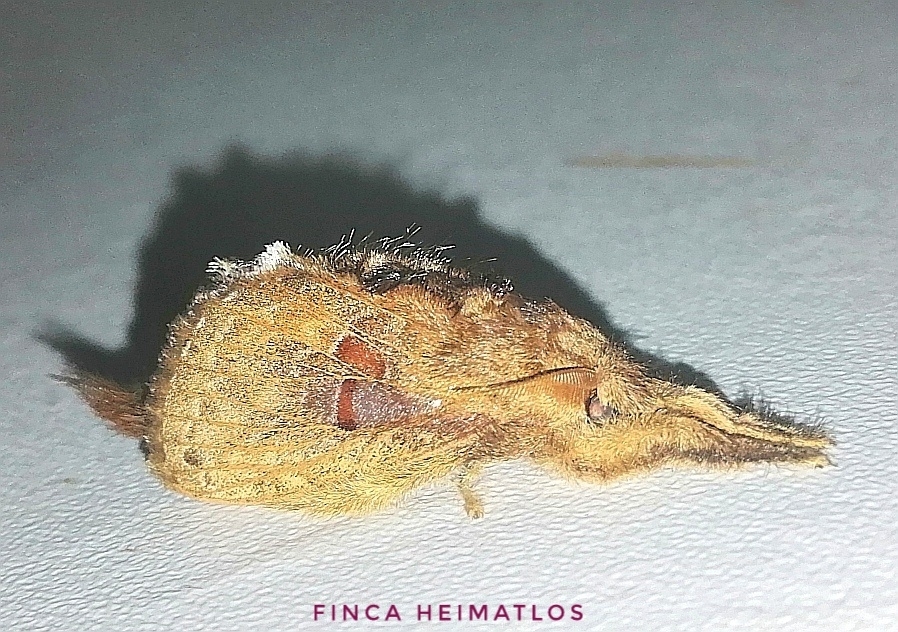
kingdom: Animalia
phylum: Arthropoda
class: Insecta
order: Lepidoptera
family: Lasiocampidae
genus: Labedera
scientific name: Labedera fuscicaudata
